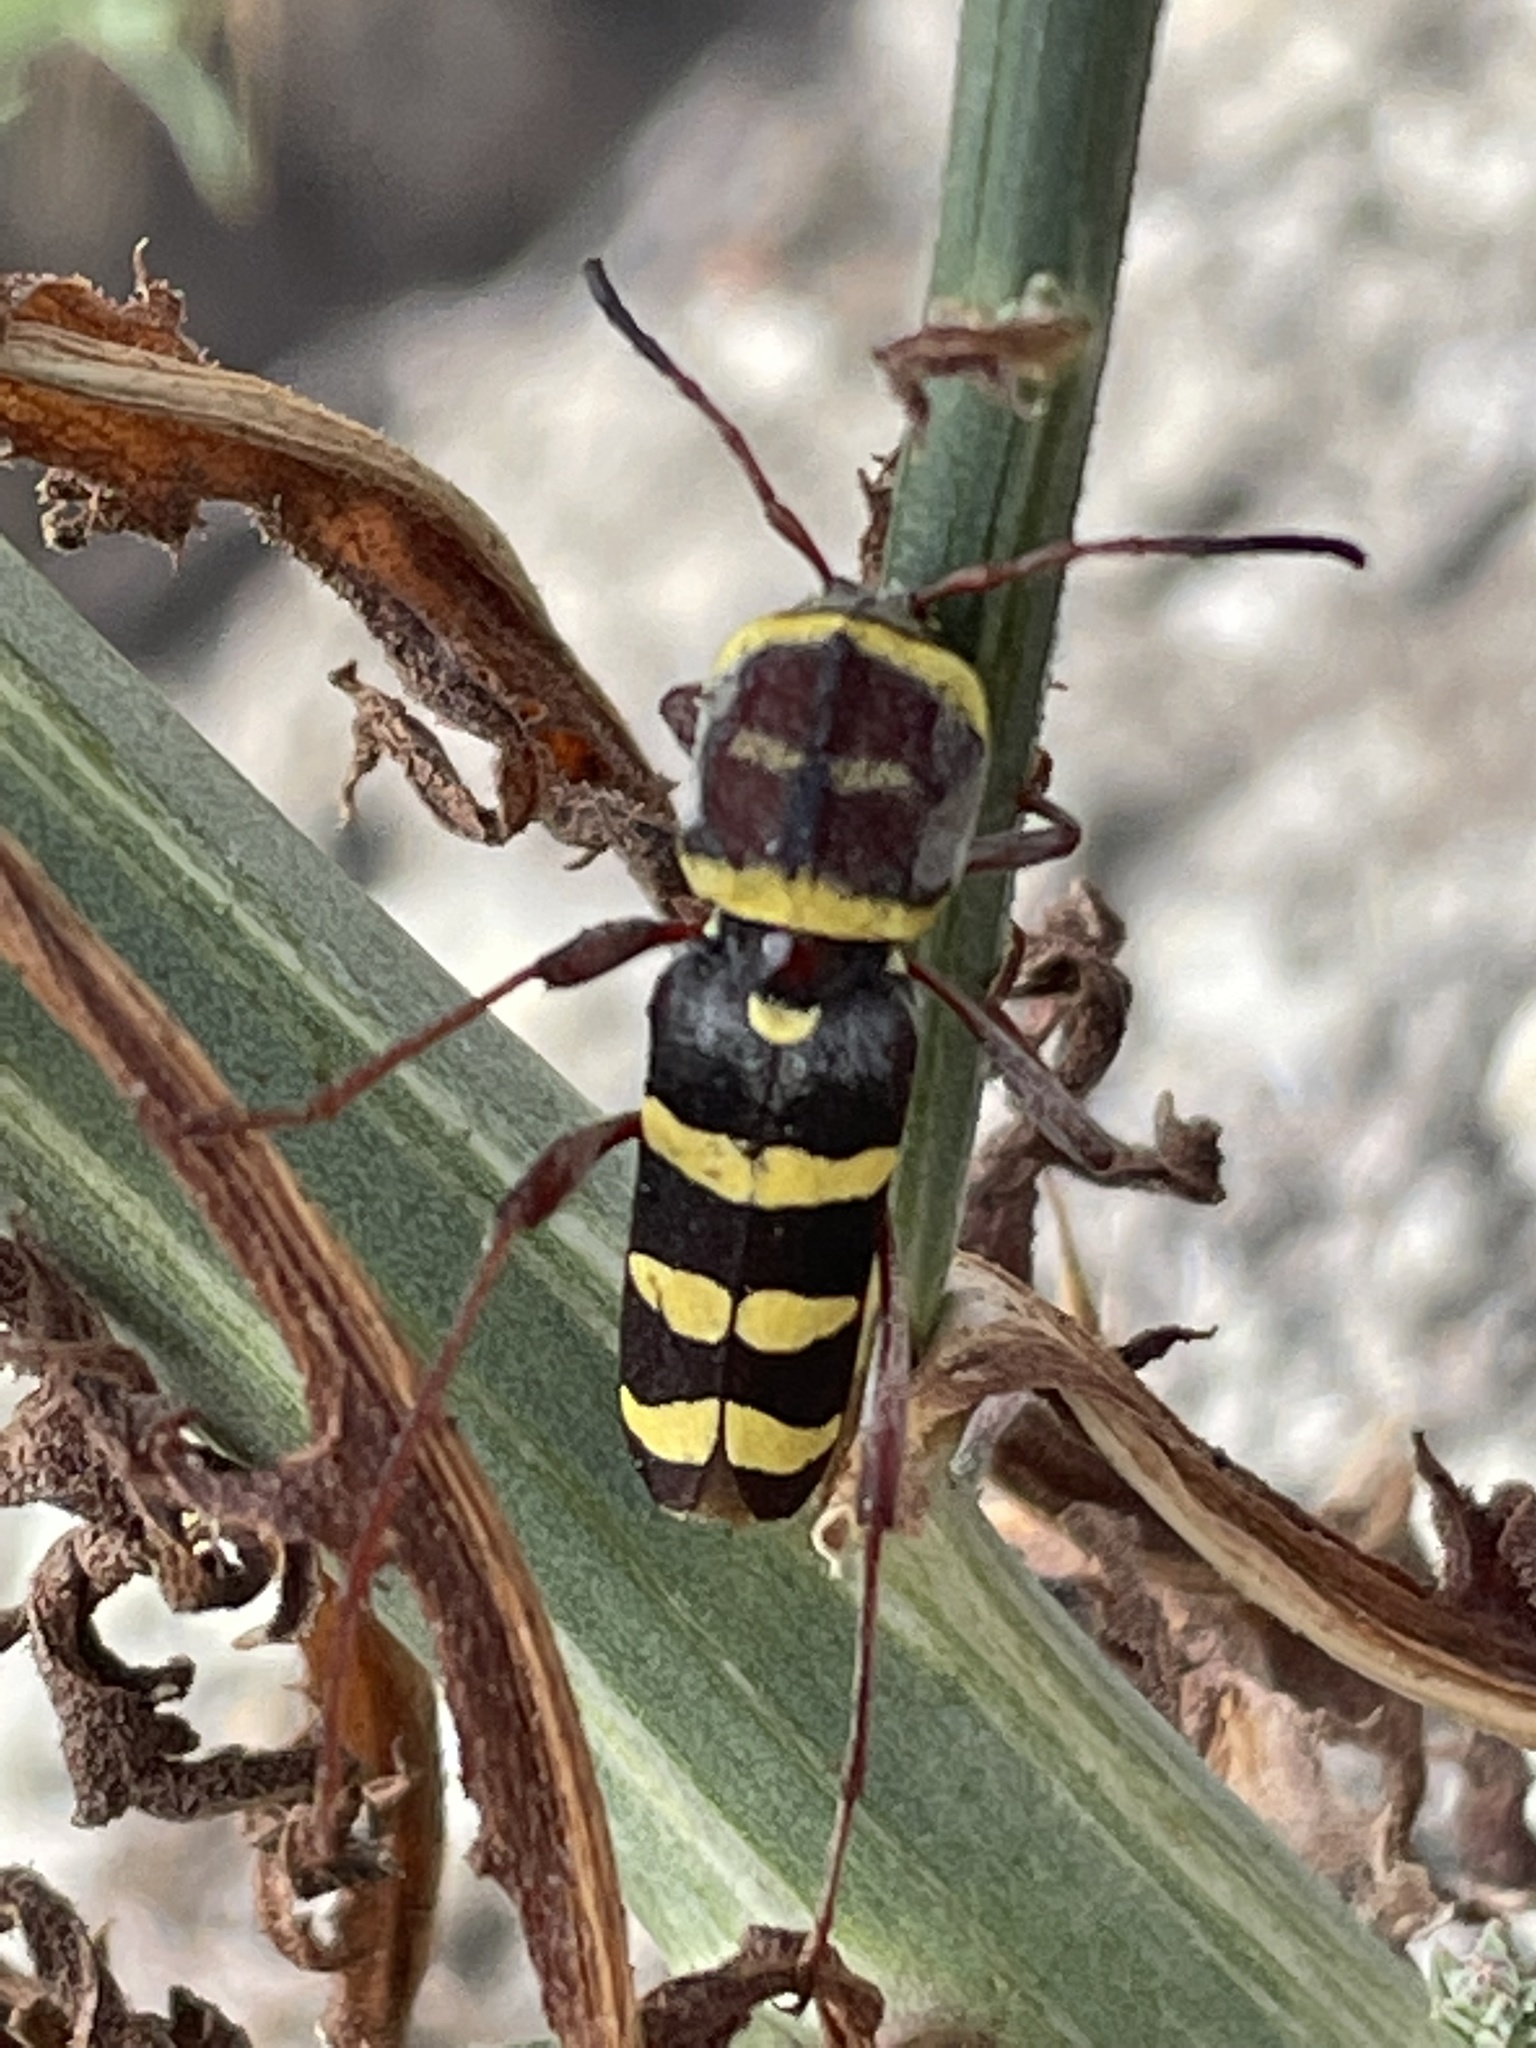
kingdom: Animalia
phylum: Arthropoda
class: Insecta
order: Coleoptera
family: Cerambycidae
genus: Neoclytus
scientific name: Neoclytus magnus
